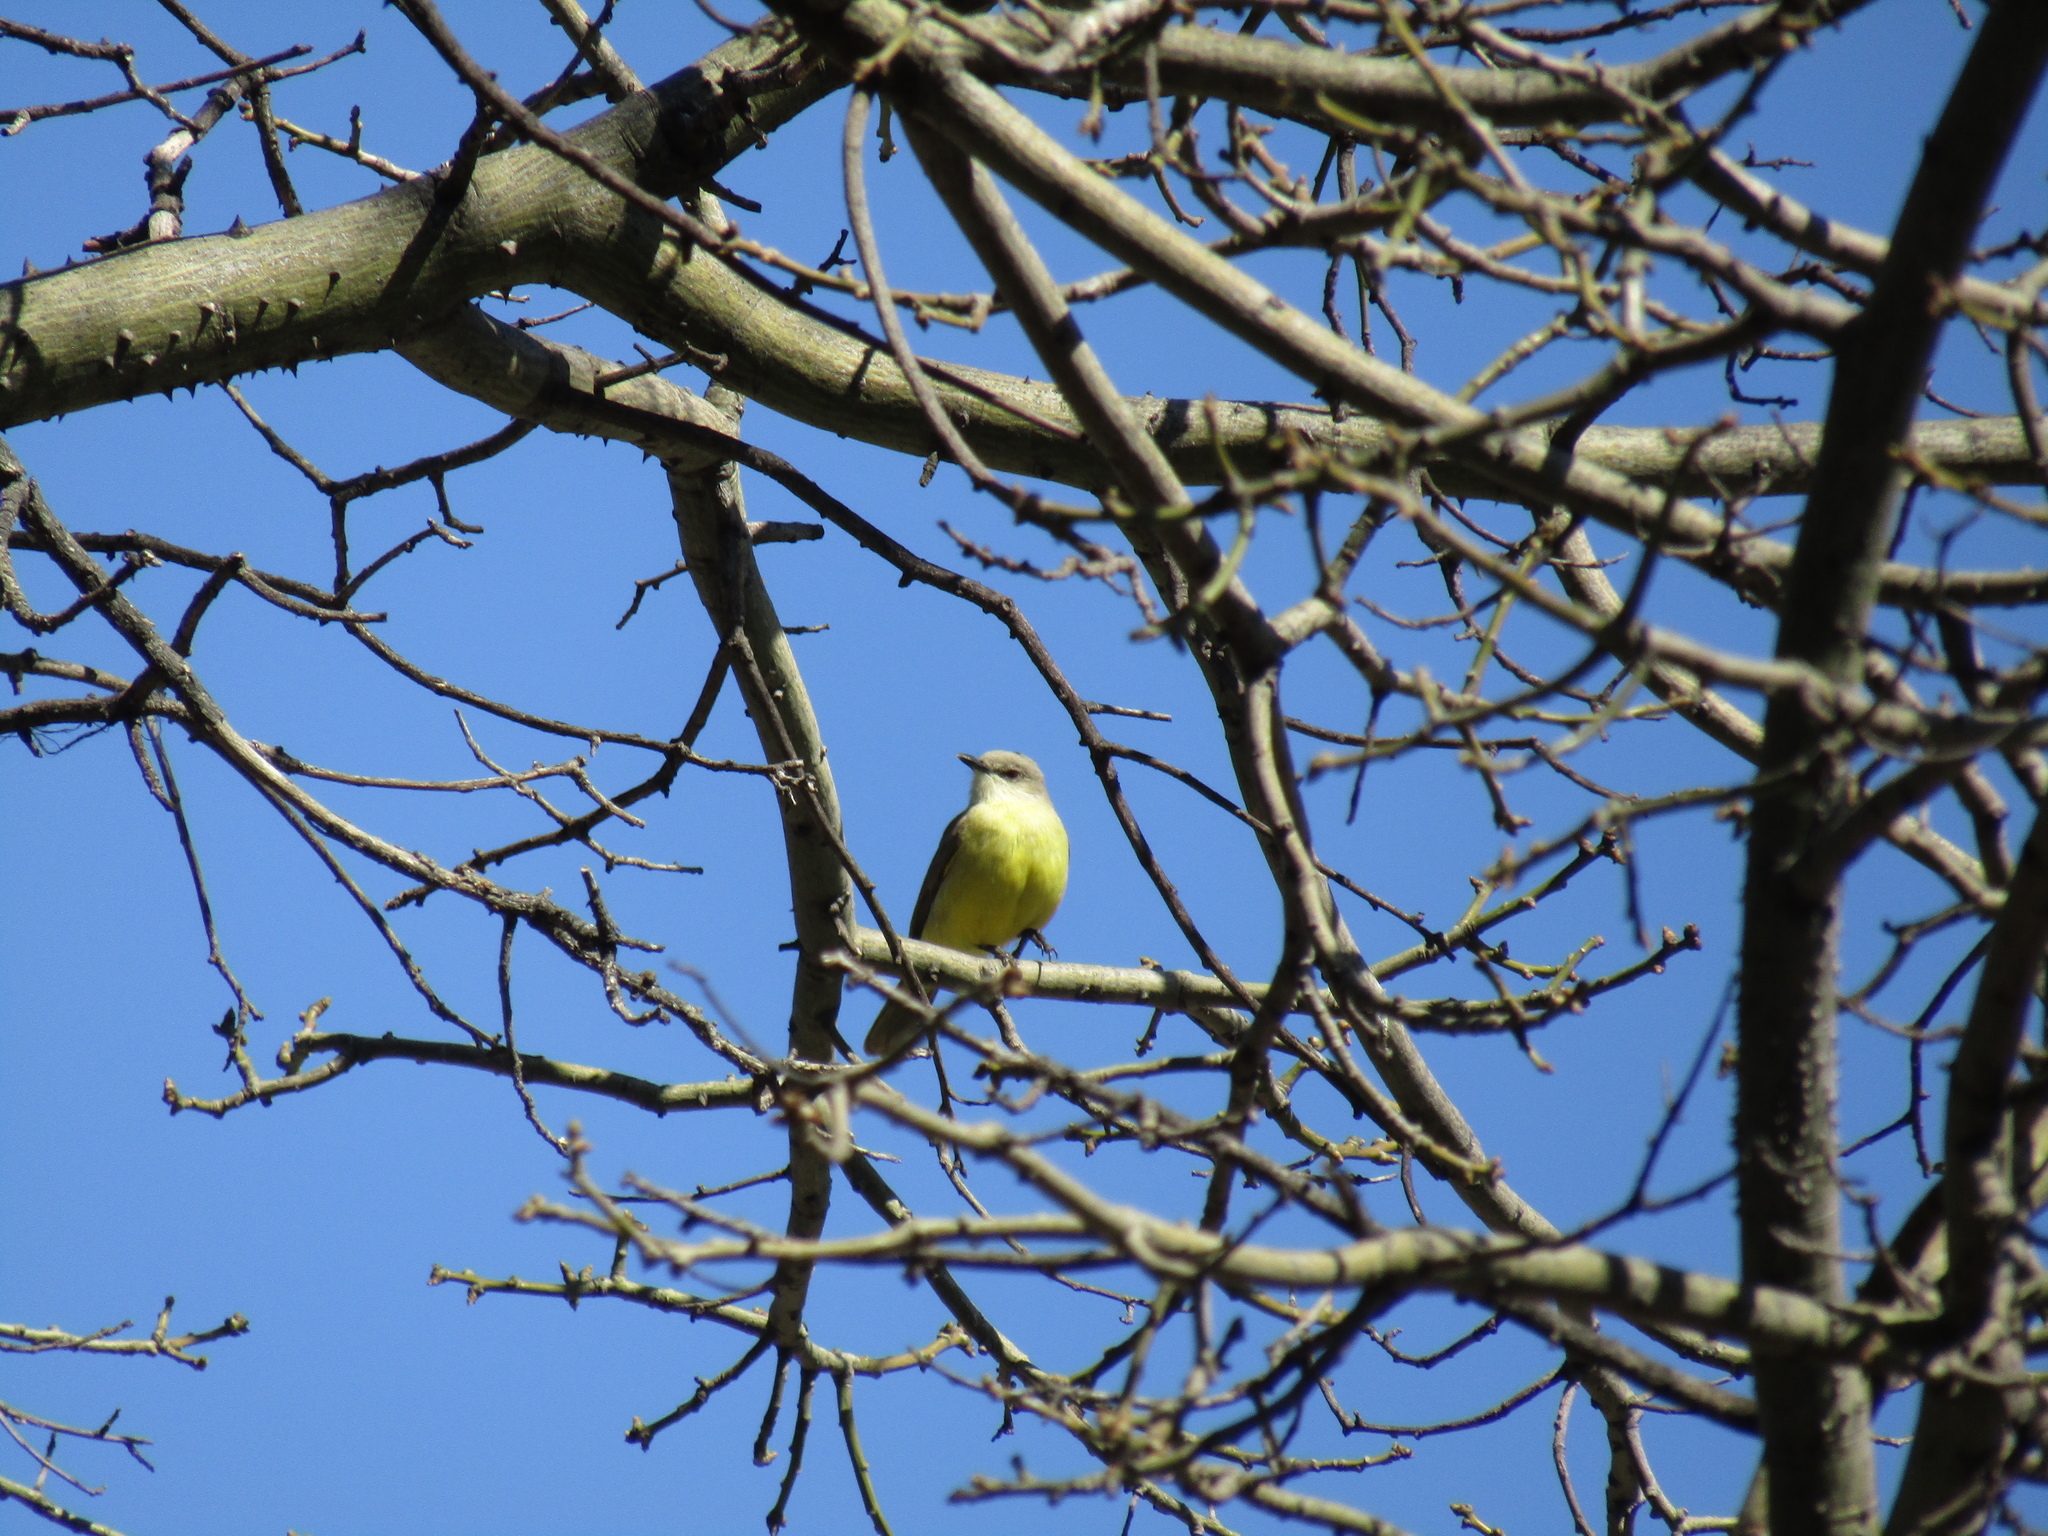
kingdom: Animalia
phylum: Chordata
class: Aves
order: Passeriformes
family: Tyrannidae
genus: Machetornis
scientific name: Machetornis rixosa
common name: Cattle tyrant
